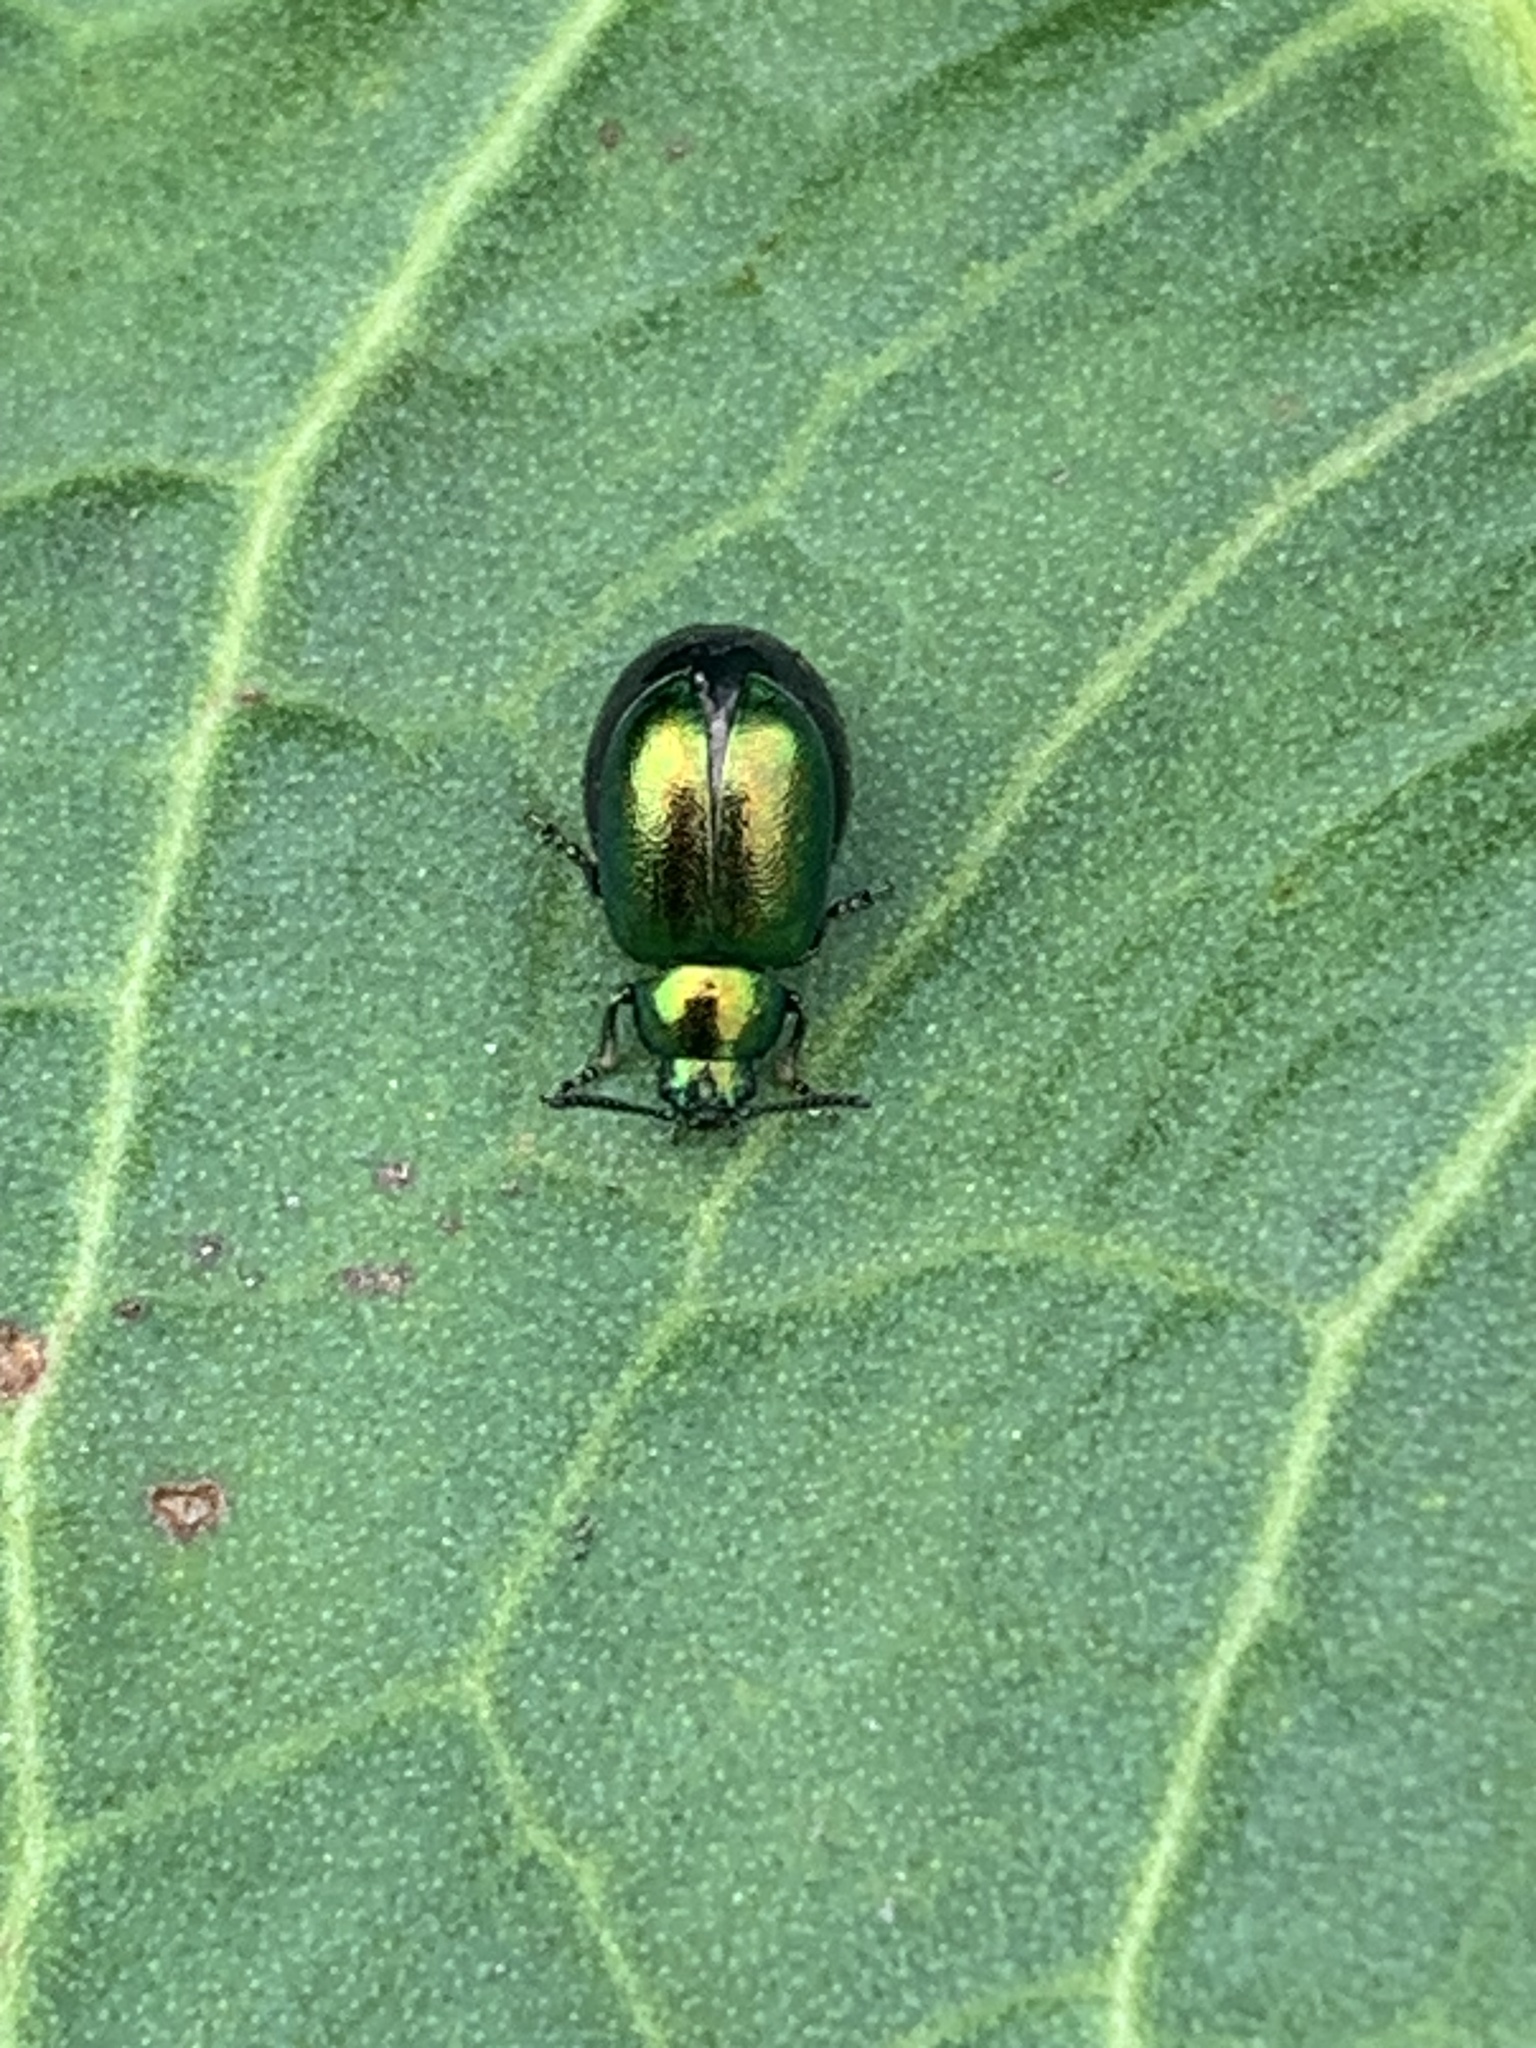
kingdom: Animalia
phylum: Arthropoda
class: Insecta
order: Coleoptera
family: Chrysomelidae
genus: Gastrophysa
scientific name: Gastrophysa viridula
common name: Green dock beetle
